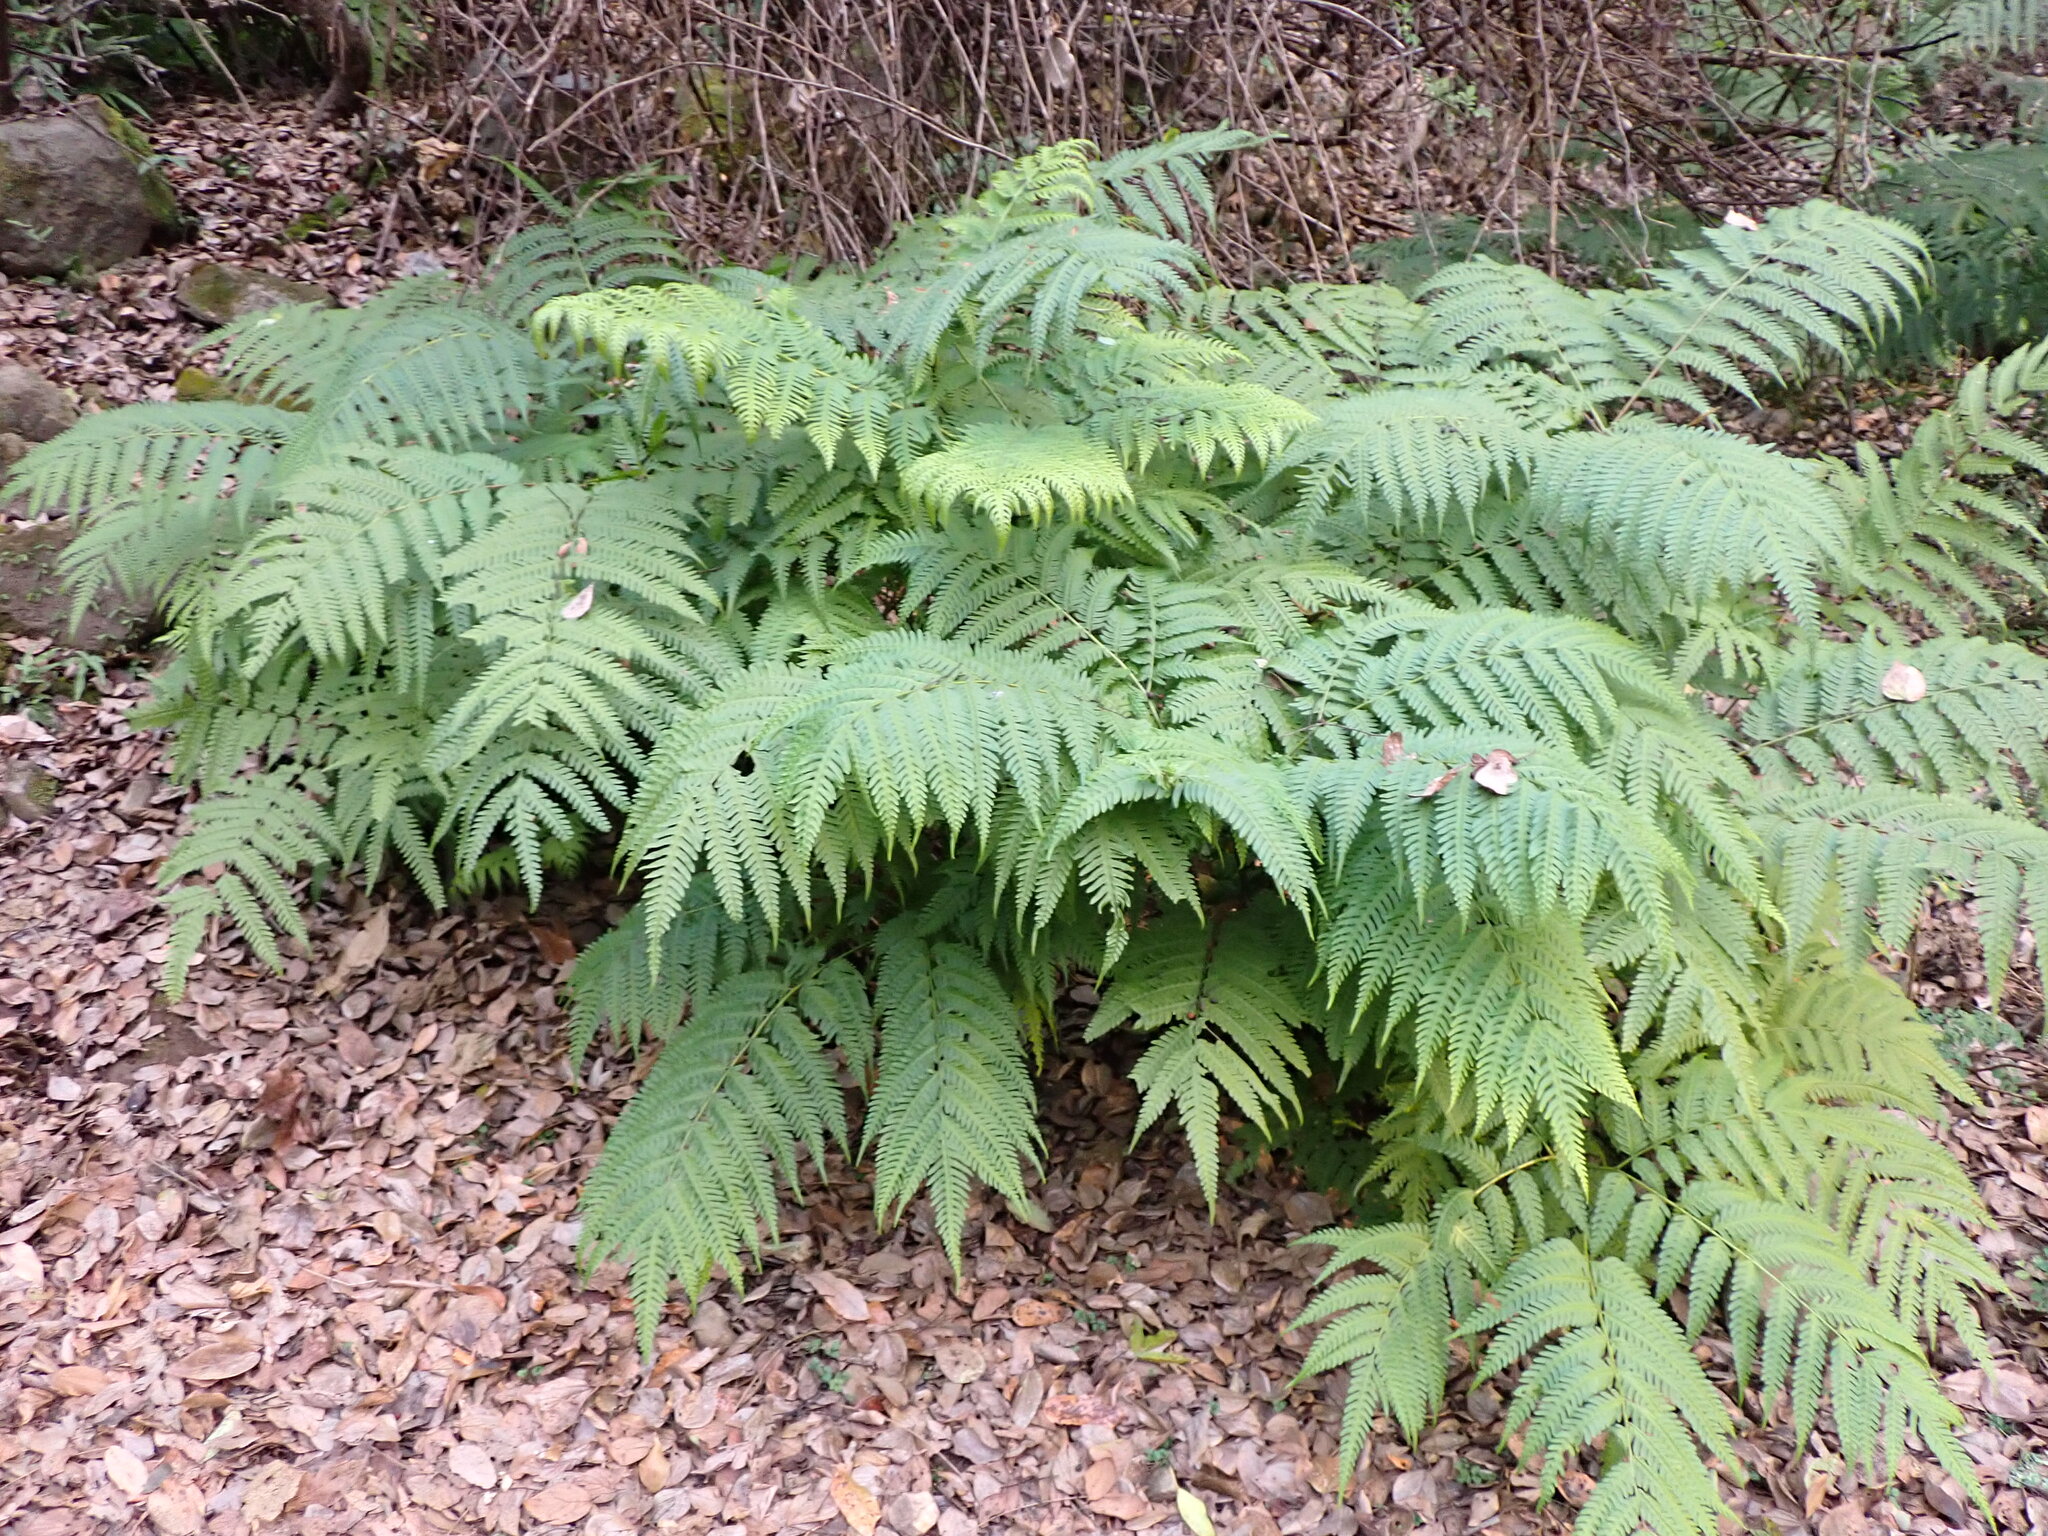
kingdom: Plantae
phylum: Tracheophyta
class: Polypodiopsida
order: Polypodiales
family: Pteridaceae
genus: Pteris
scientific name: Pteris wallichiana
